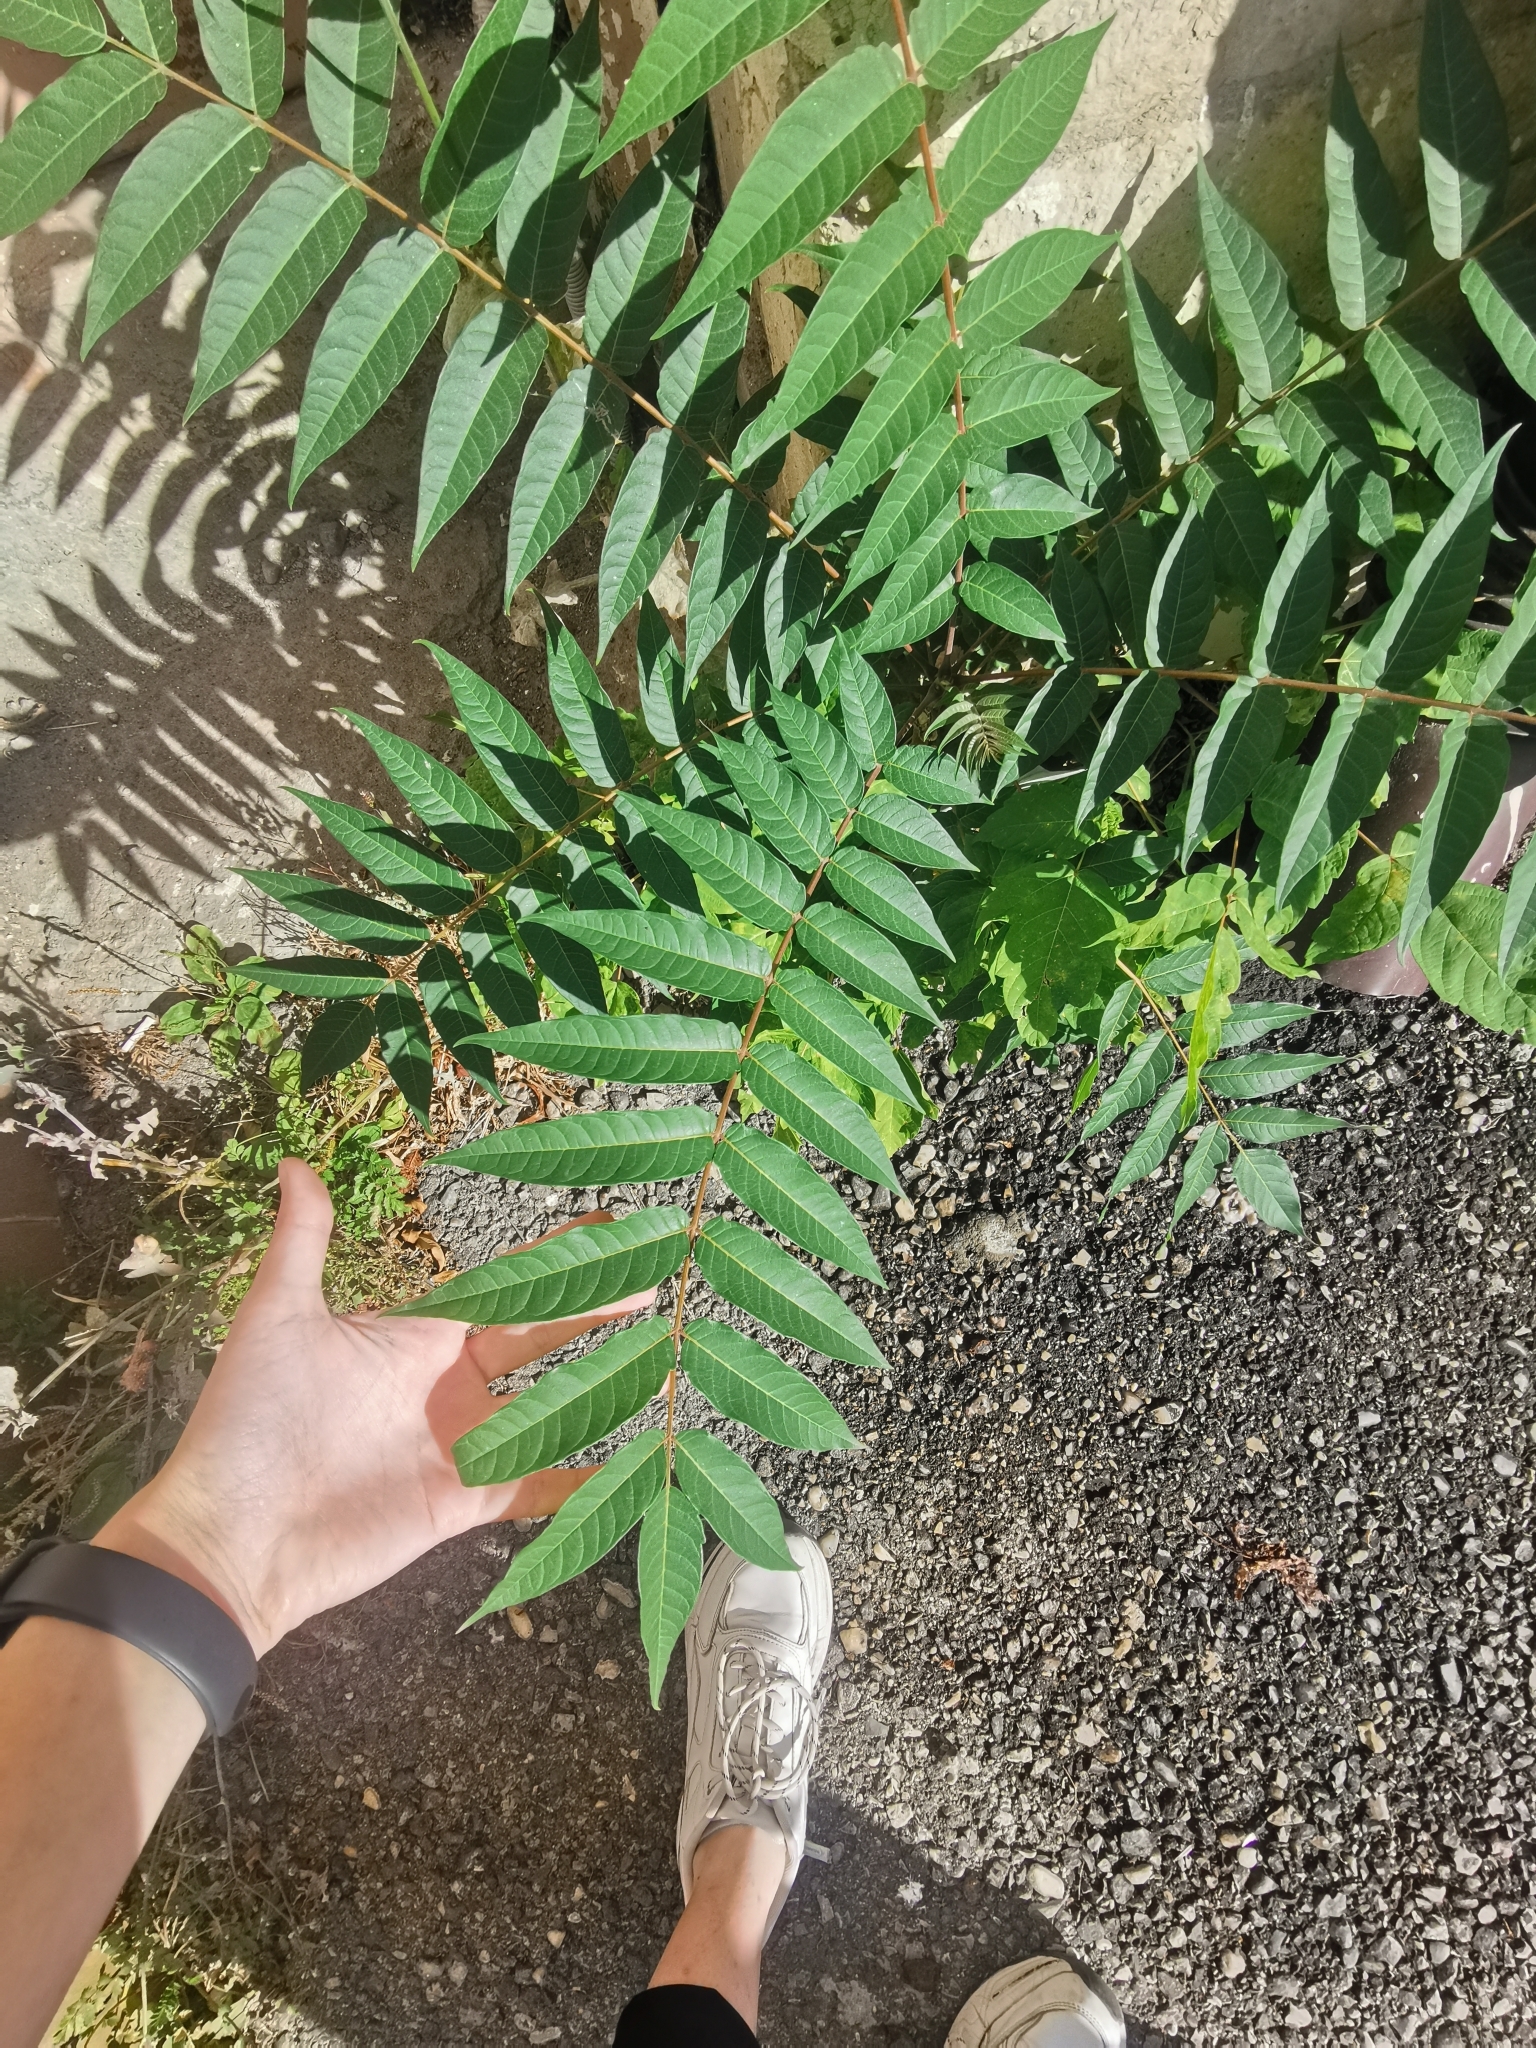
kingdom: Plantae
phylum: Tracheophyta
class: Magnoliopsida
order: Sapindales
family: Simaroubaceae
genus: Ailanthus
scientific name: Ailanthus altissima
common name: Tree-of-heaven
